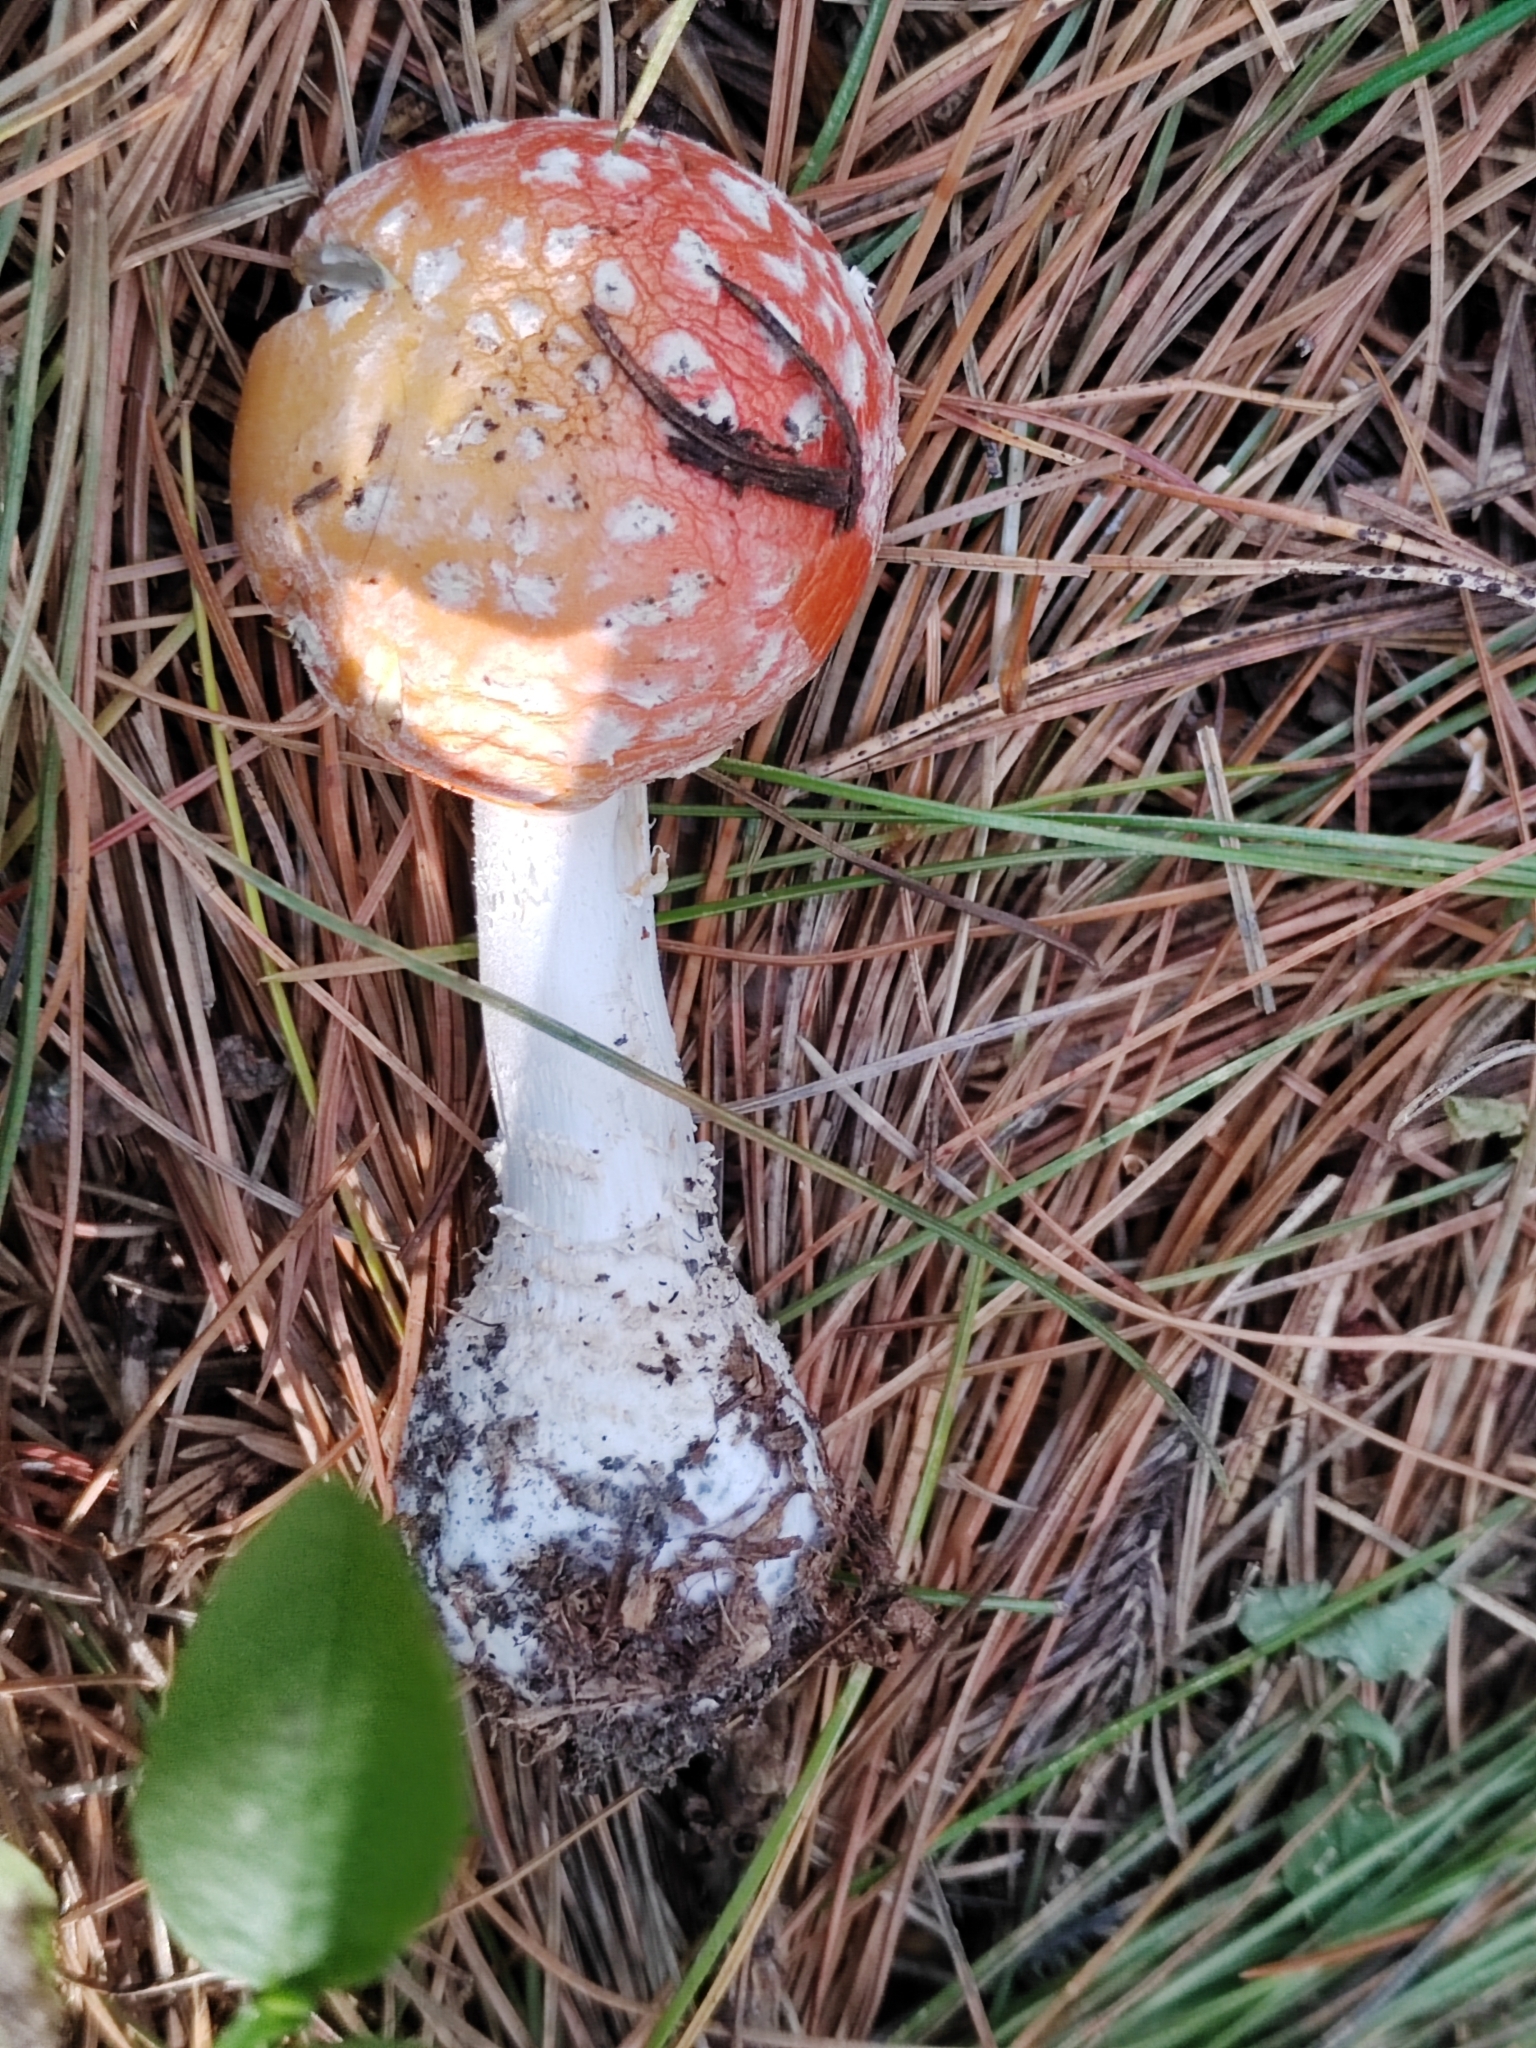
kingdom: Fungi
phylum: Basidiomycota
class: Agaricomycetes
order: Agaricales
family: Amanitaceae
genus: Amanita
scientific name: Amanita muscaria
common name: Fly agaric
